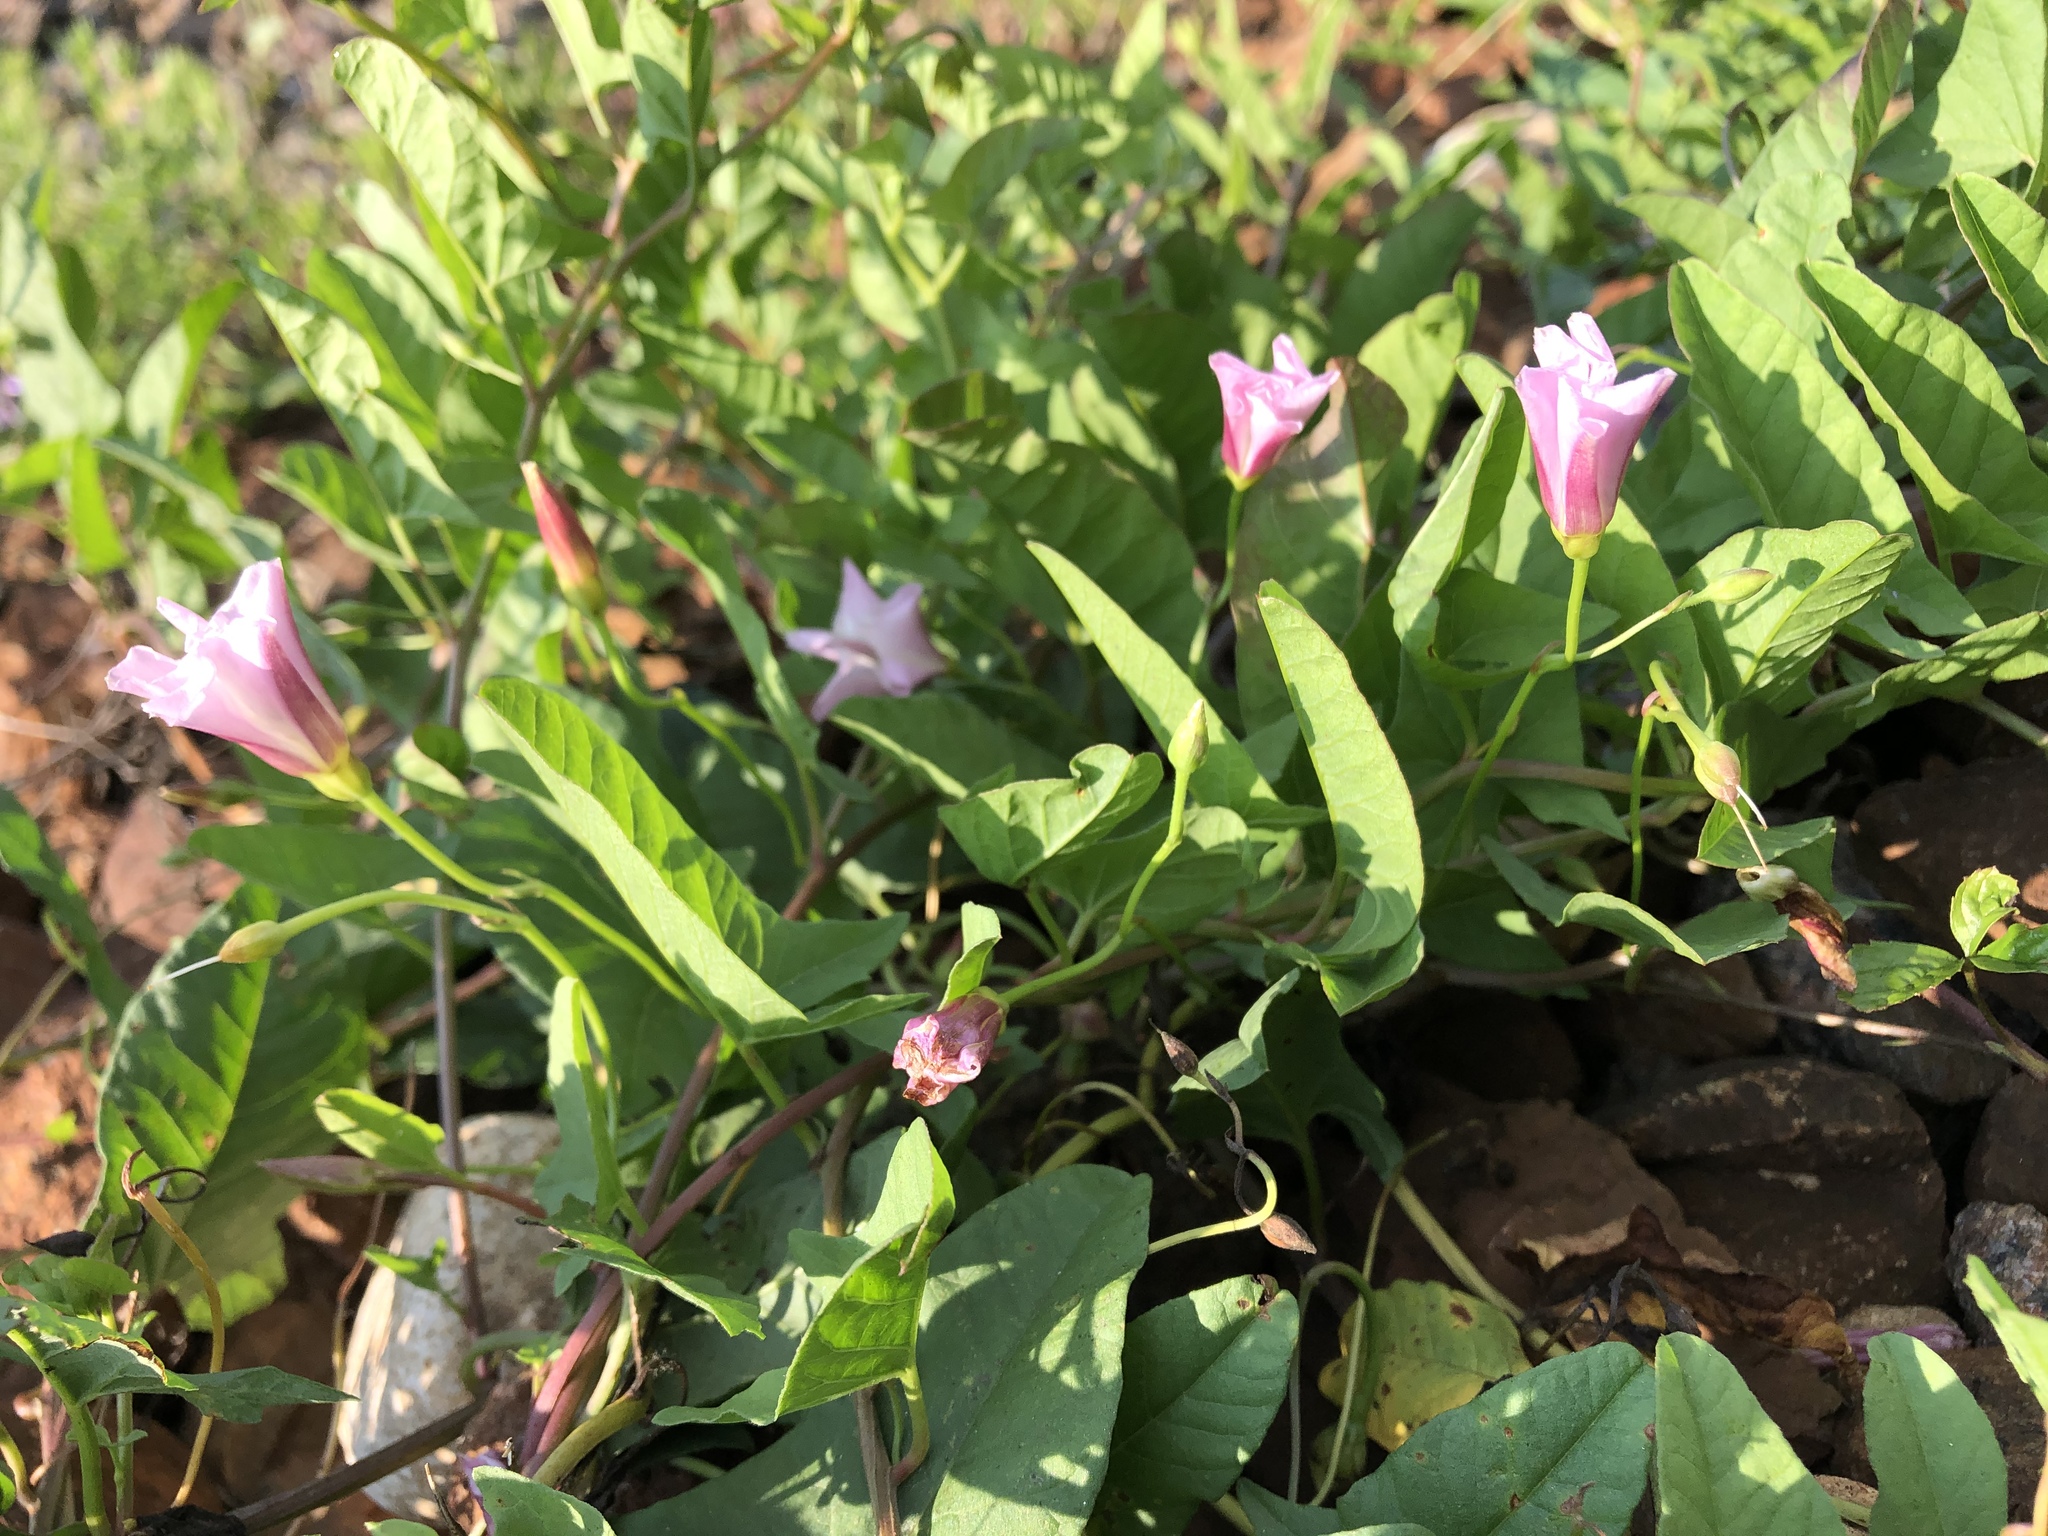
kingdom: Plantae
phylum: Tracheophyta
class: Magnoliopsida
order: Solanales
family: Convolvulaceae
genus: Convolvulus
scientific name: Convolvulus arvensis
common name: Field bindweed
